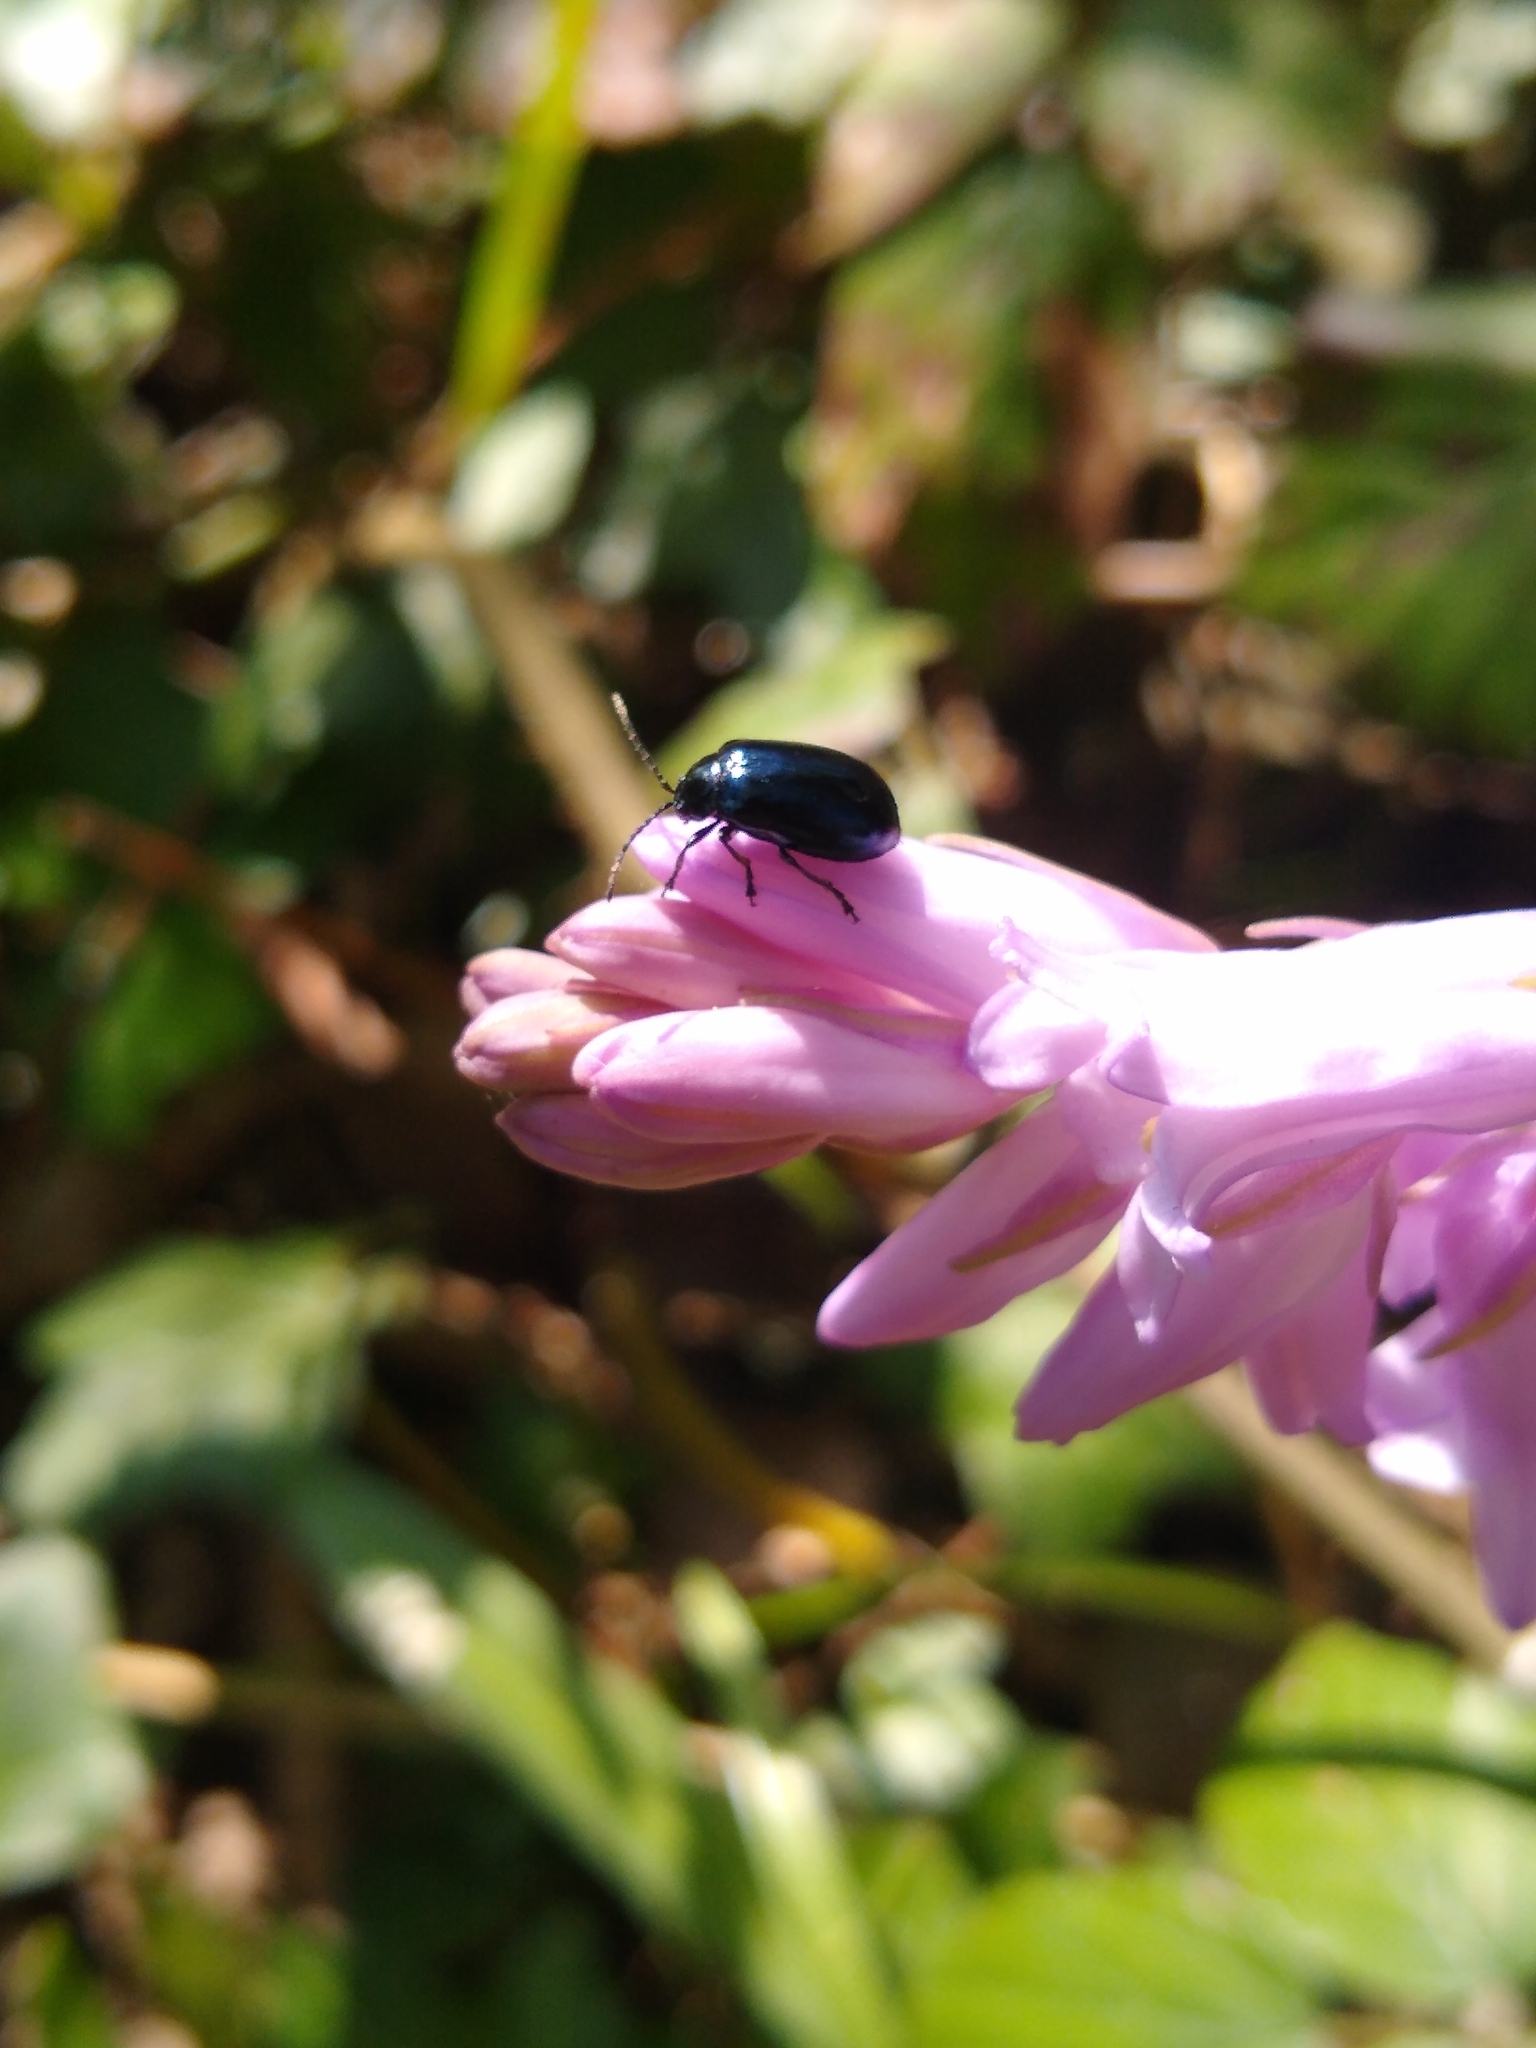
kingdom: Animalia
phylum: Arthropoda
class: Insecta
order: Coleoptera
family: Chrysomelidae
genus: Agelastica
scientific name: Agelastica alni
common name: Alder leaf beetle
